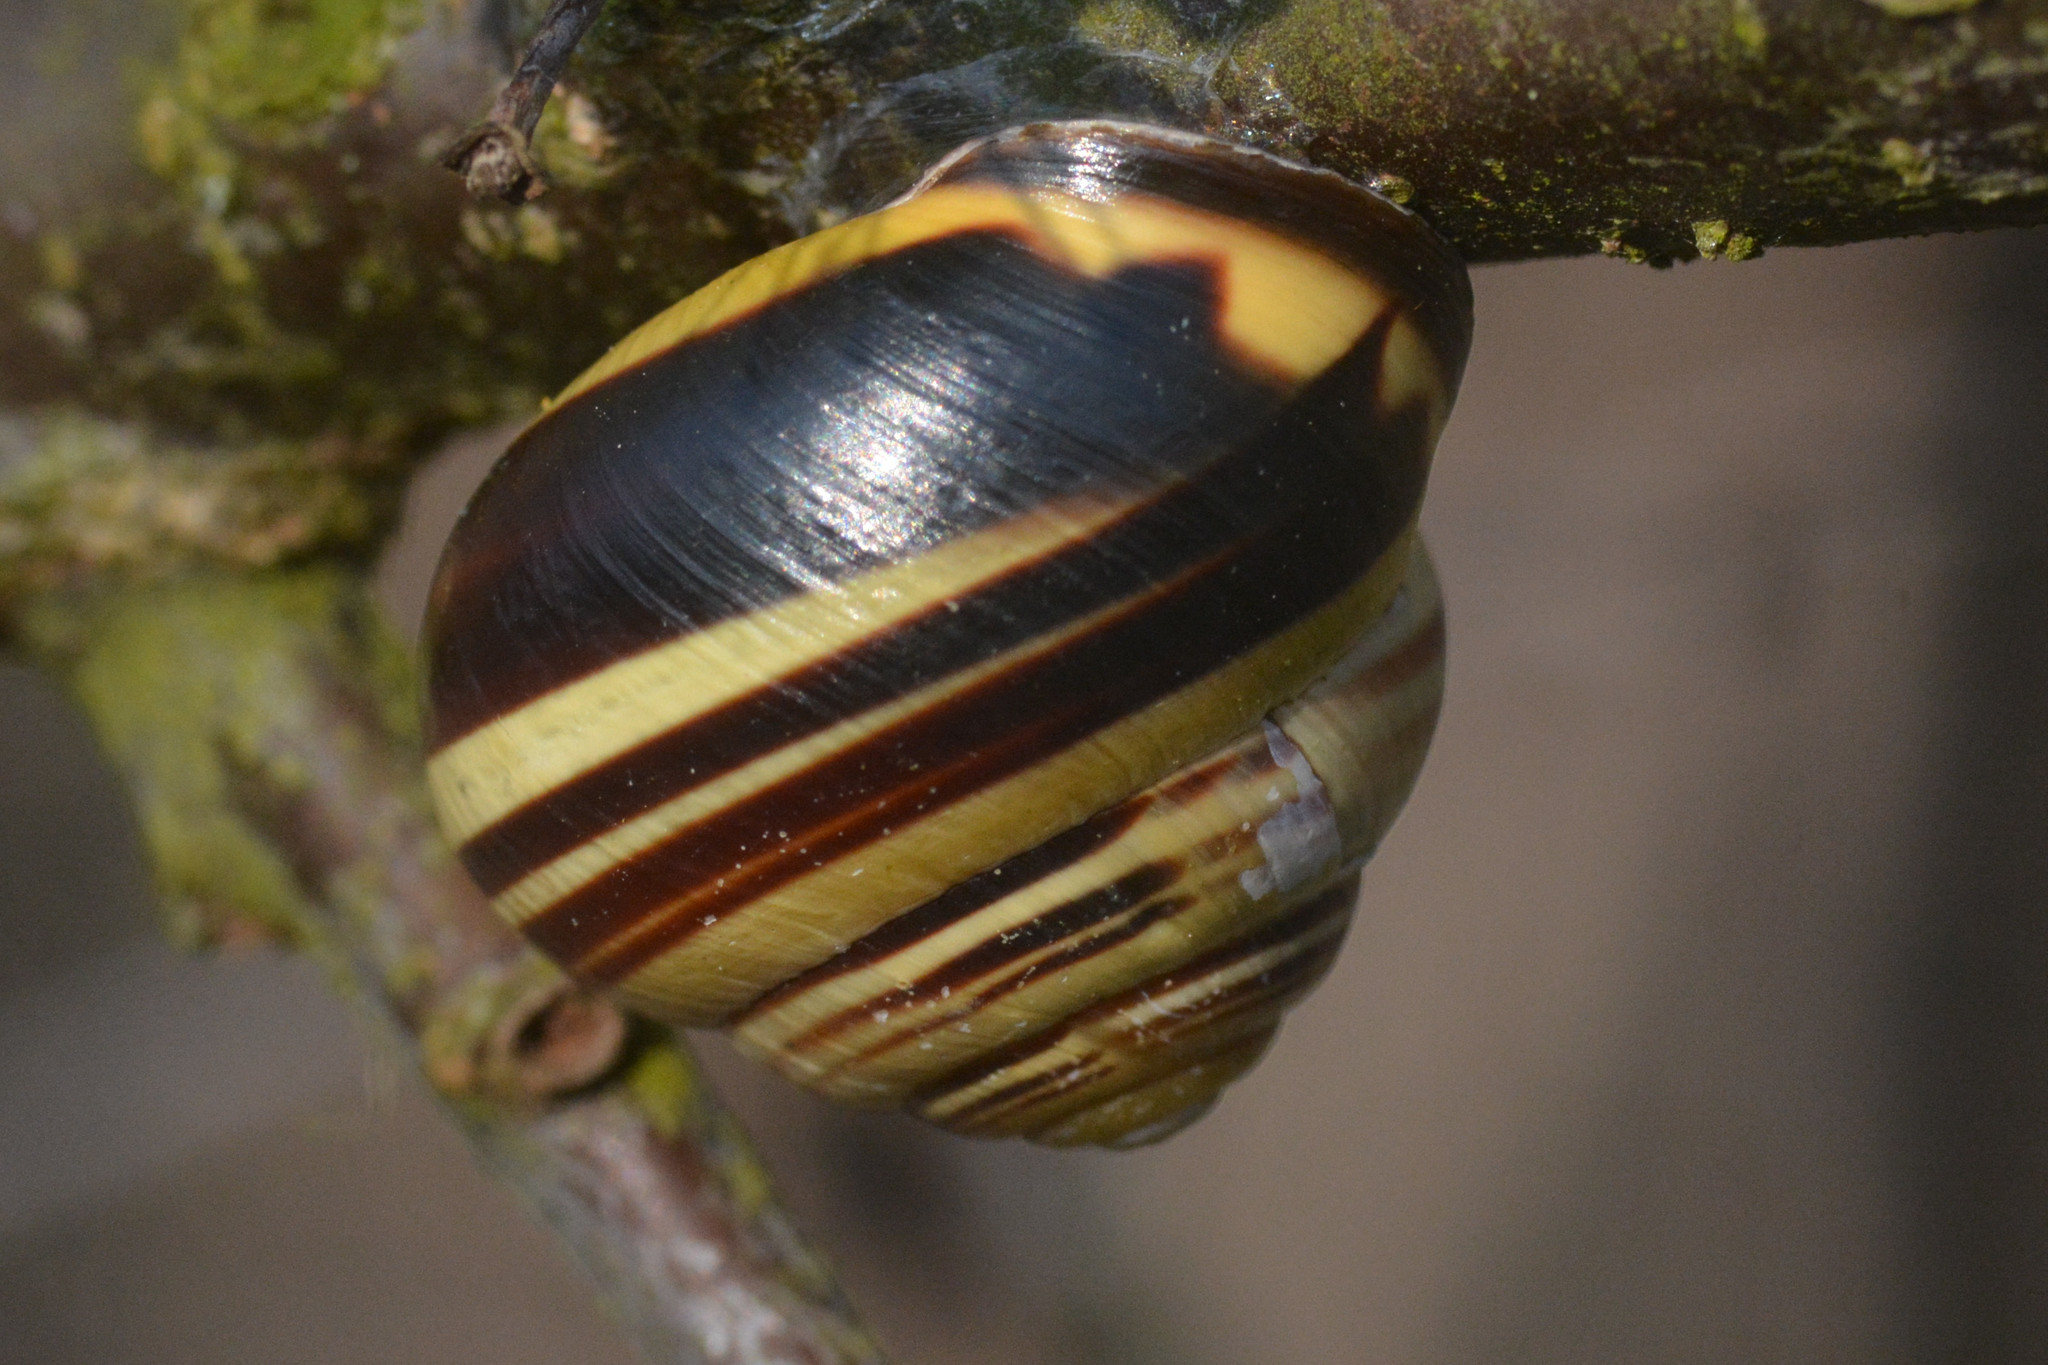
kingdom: Animalia
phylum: Mollusca
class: Gastropoda
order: Stylommatophora
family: Helicidae
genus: Cepaea
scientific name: Cepaea nemoralis
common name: Grovesnail
